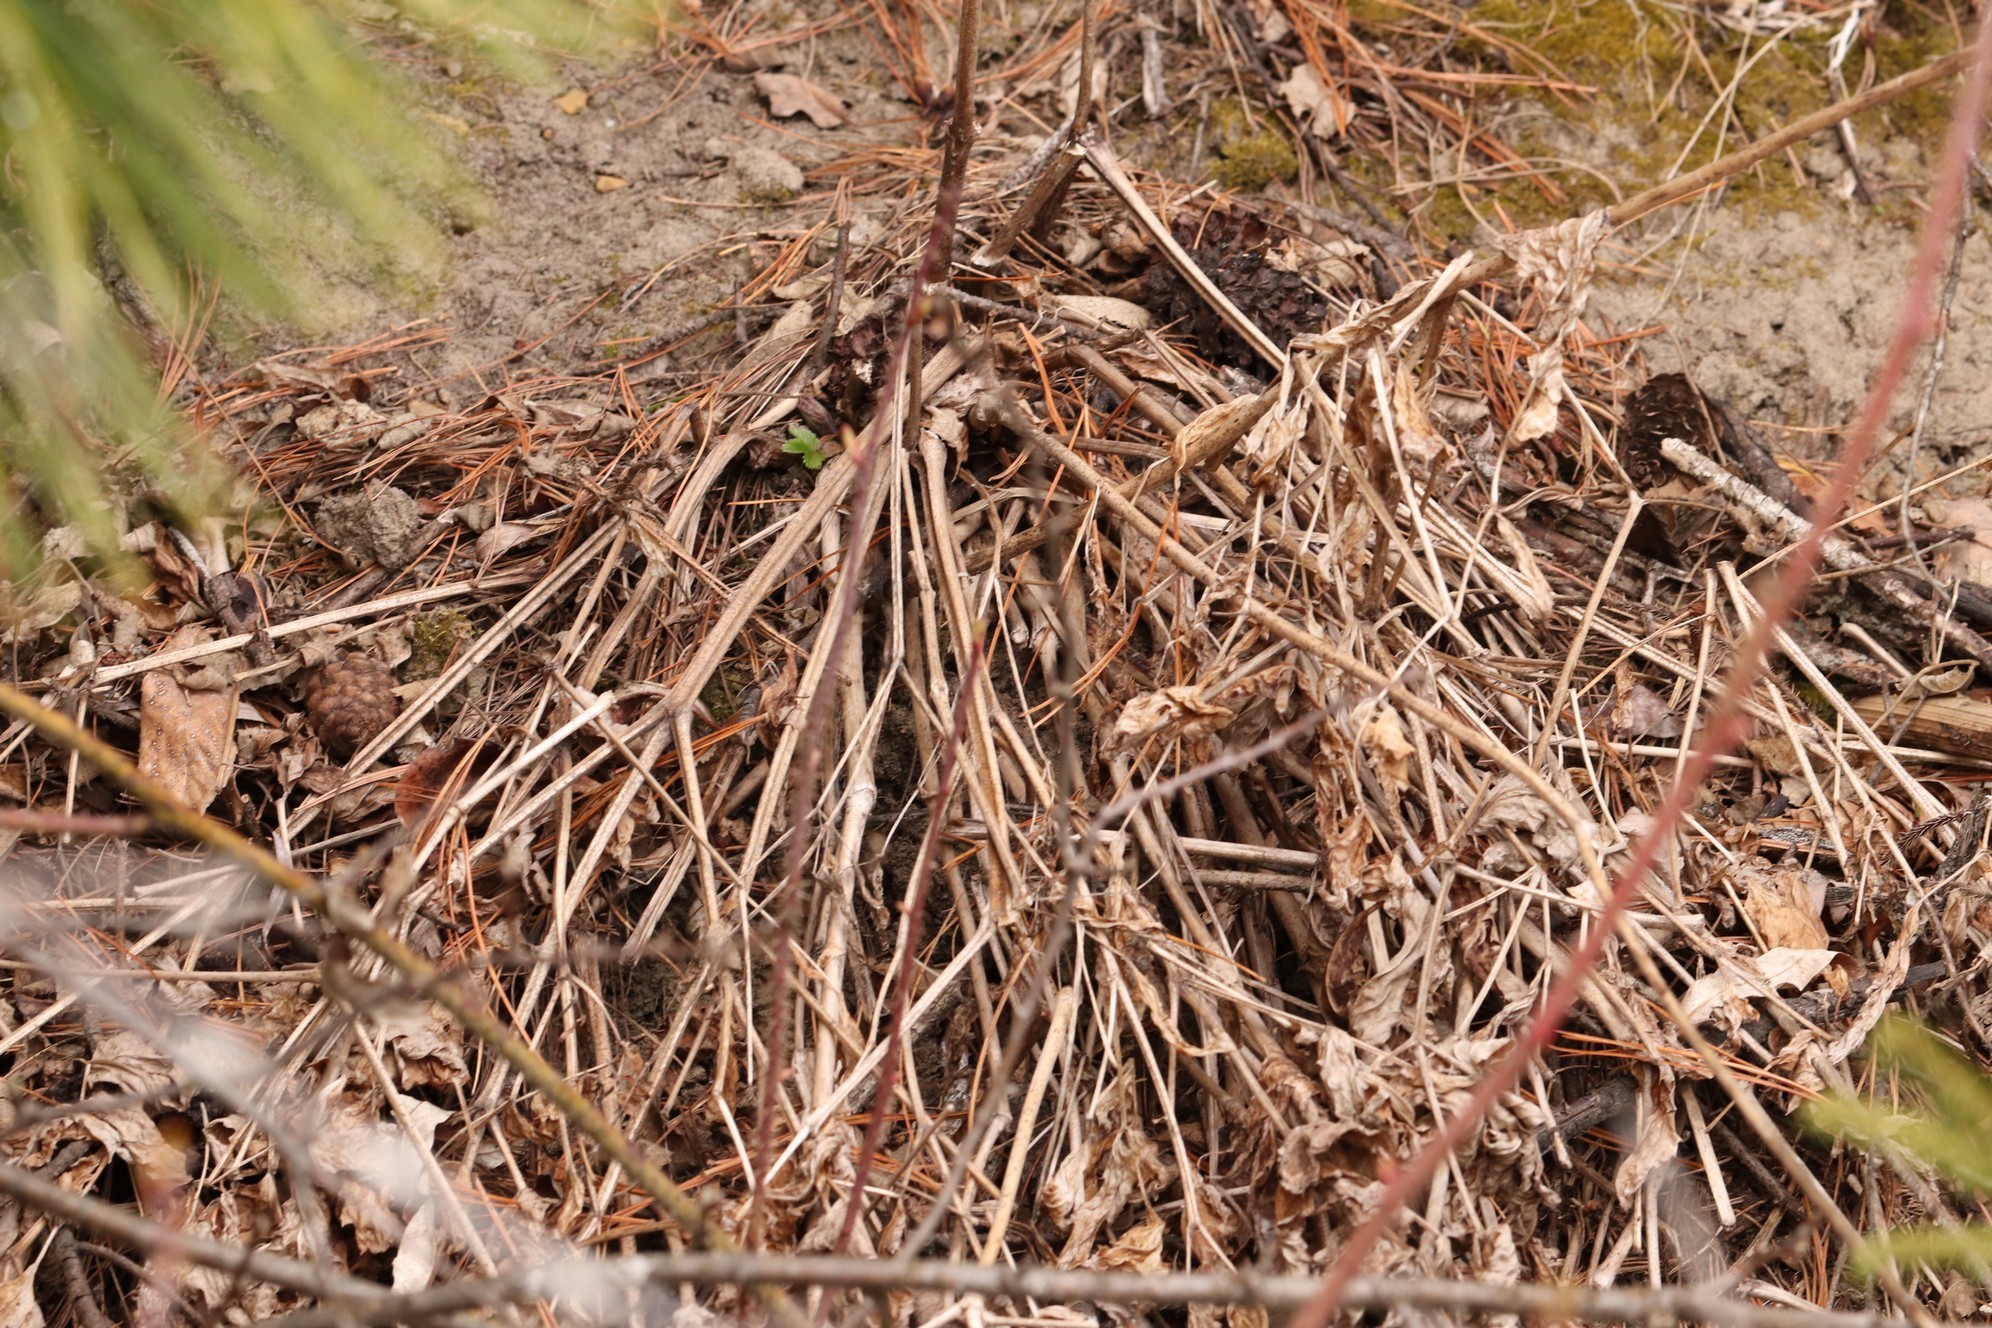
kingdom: Plantae
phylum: Tracheophyta
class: Magnoliopsida
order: Ranunculales
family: Ranunculaceae
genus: Actaea
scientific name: Actaea cimicifuga
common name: Chinese cimicifuga
